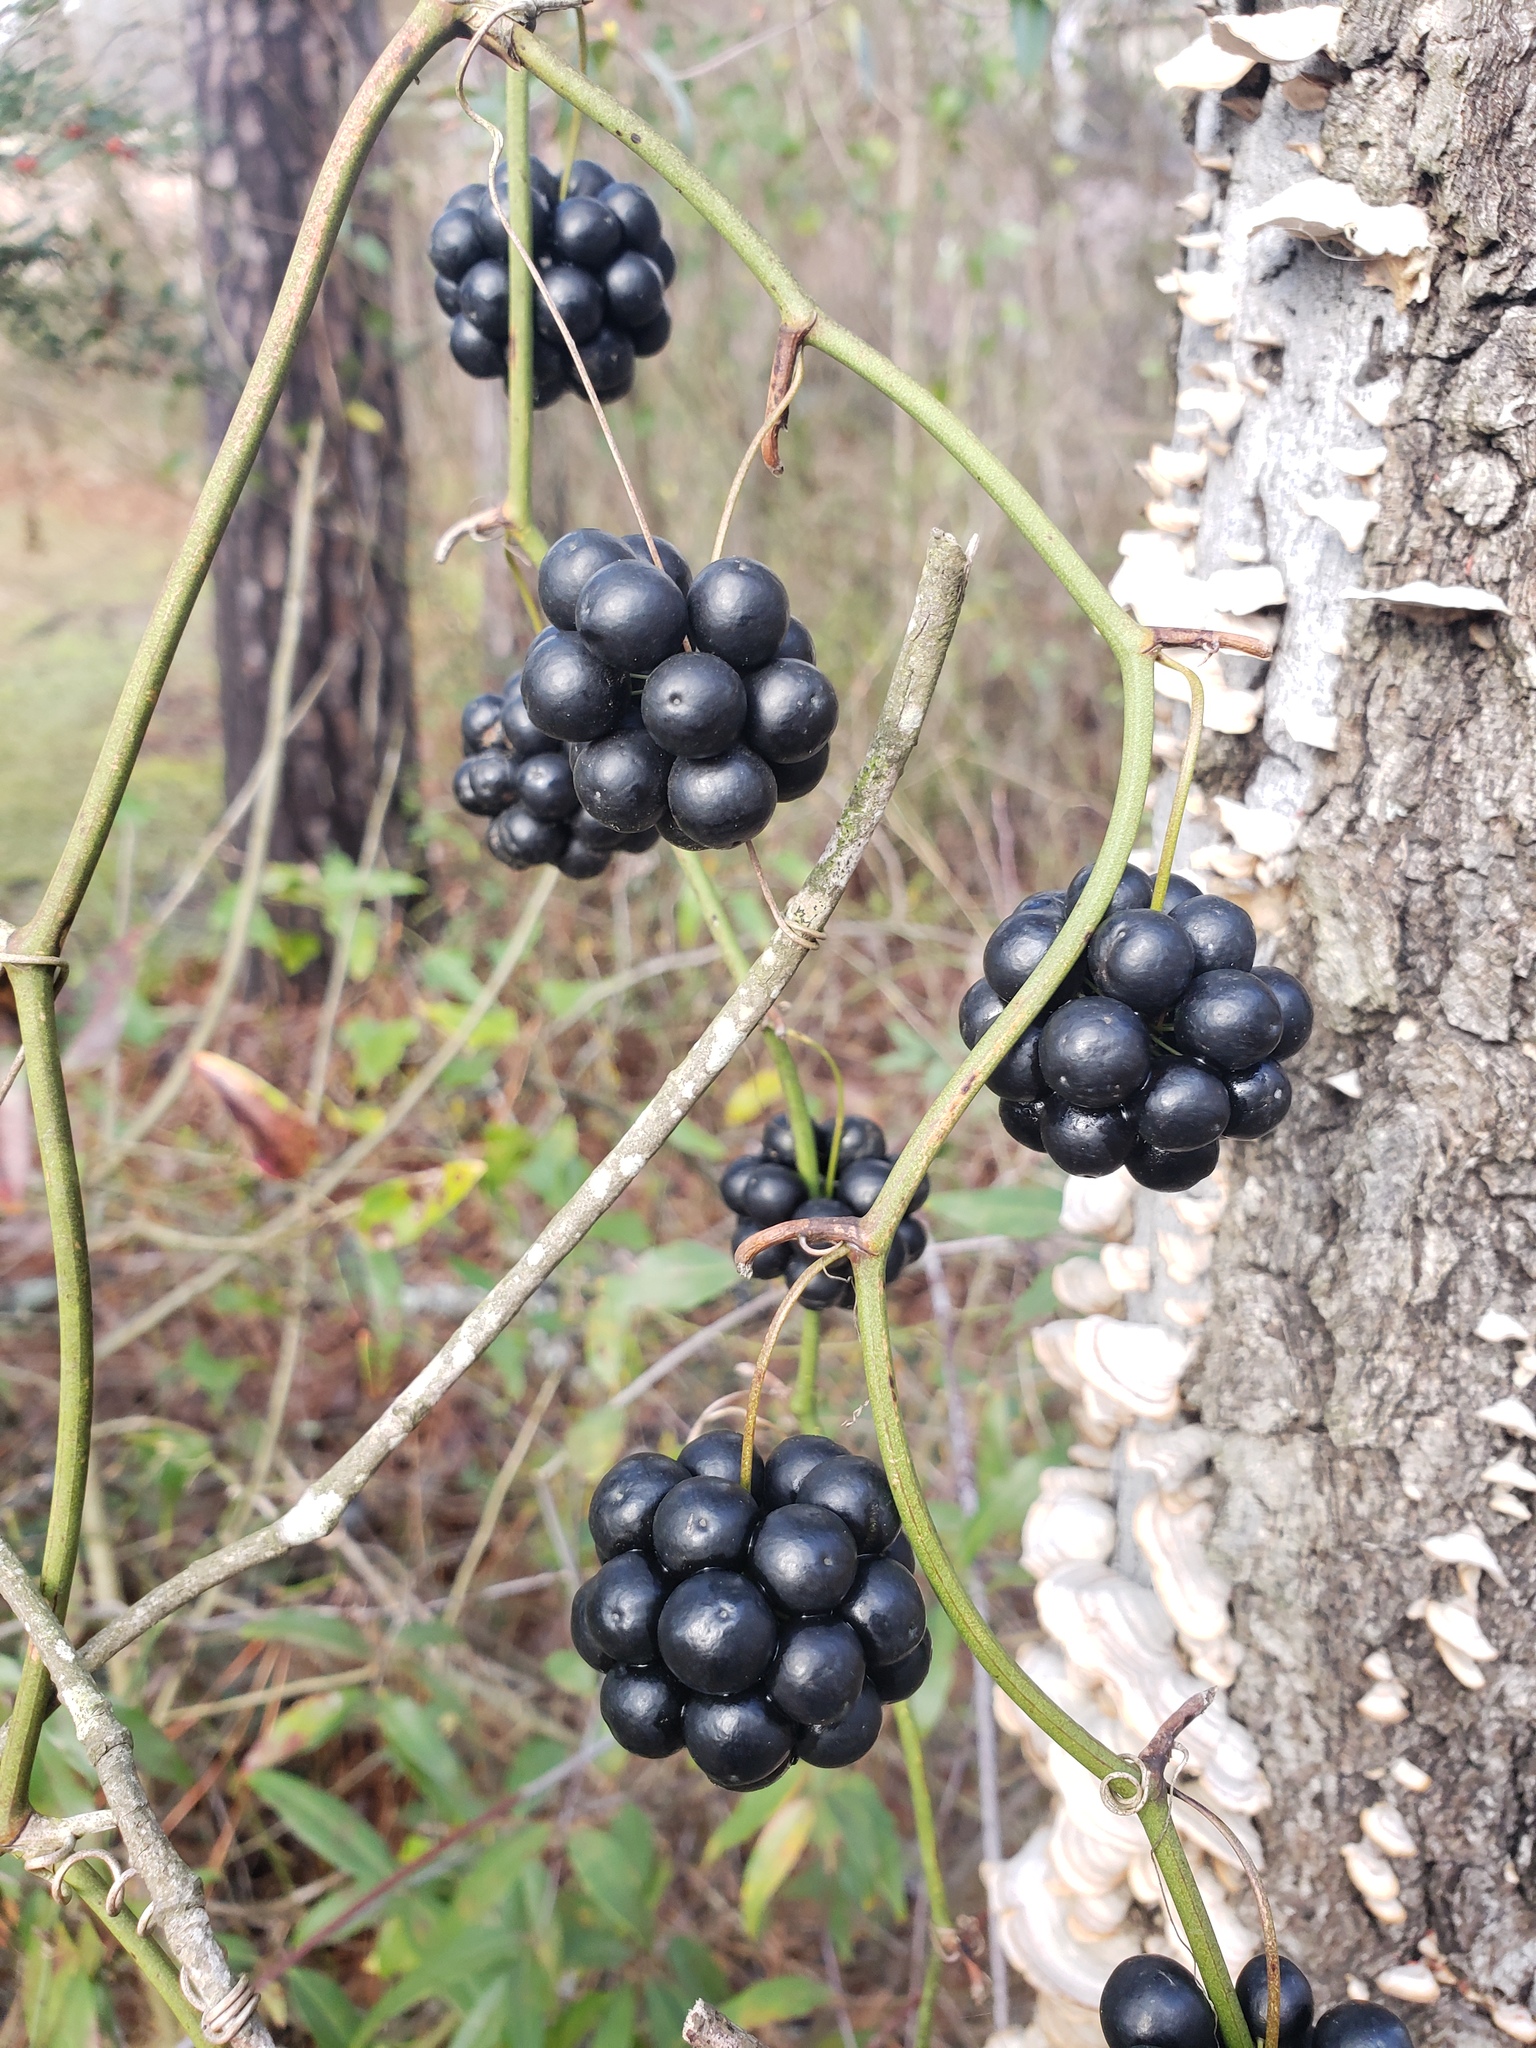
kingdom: Plantae
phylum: Tracheophyta
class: Liliopsida
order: Liliales
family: Smilacaceae
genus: Smilax
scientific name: Smilax bona-nox
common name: Catbrier
